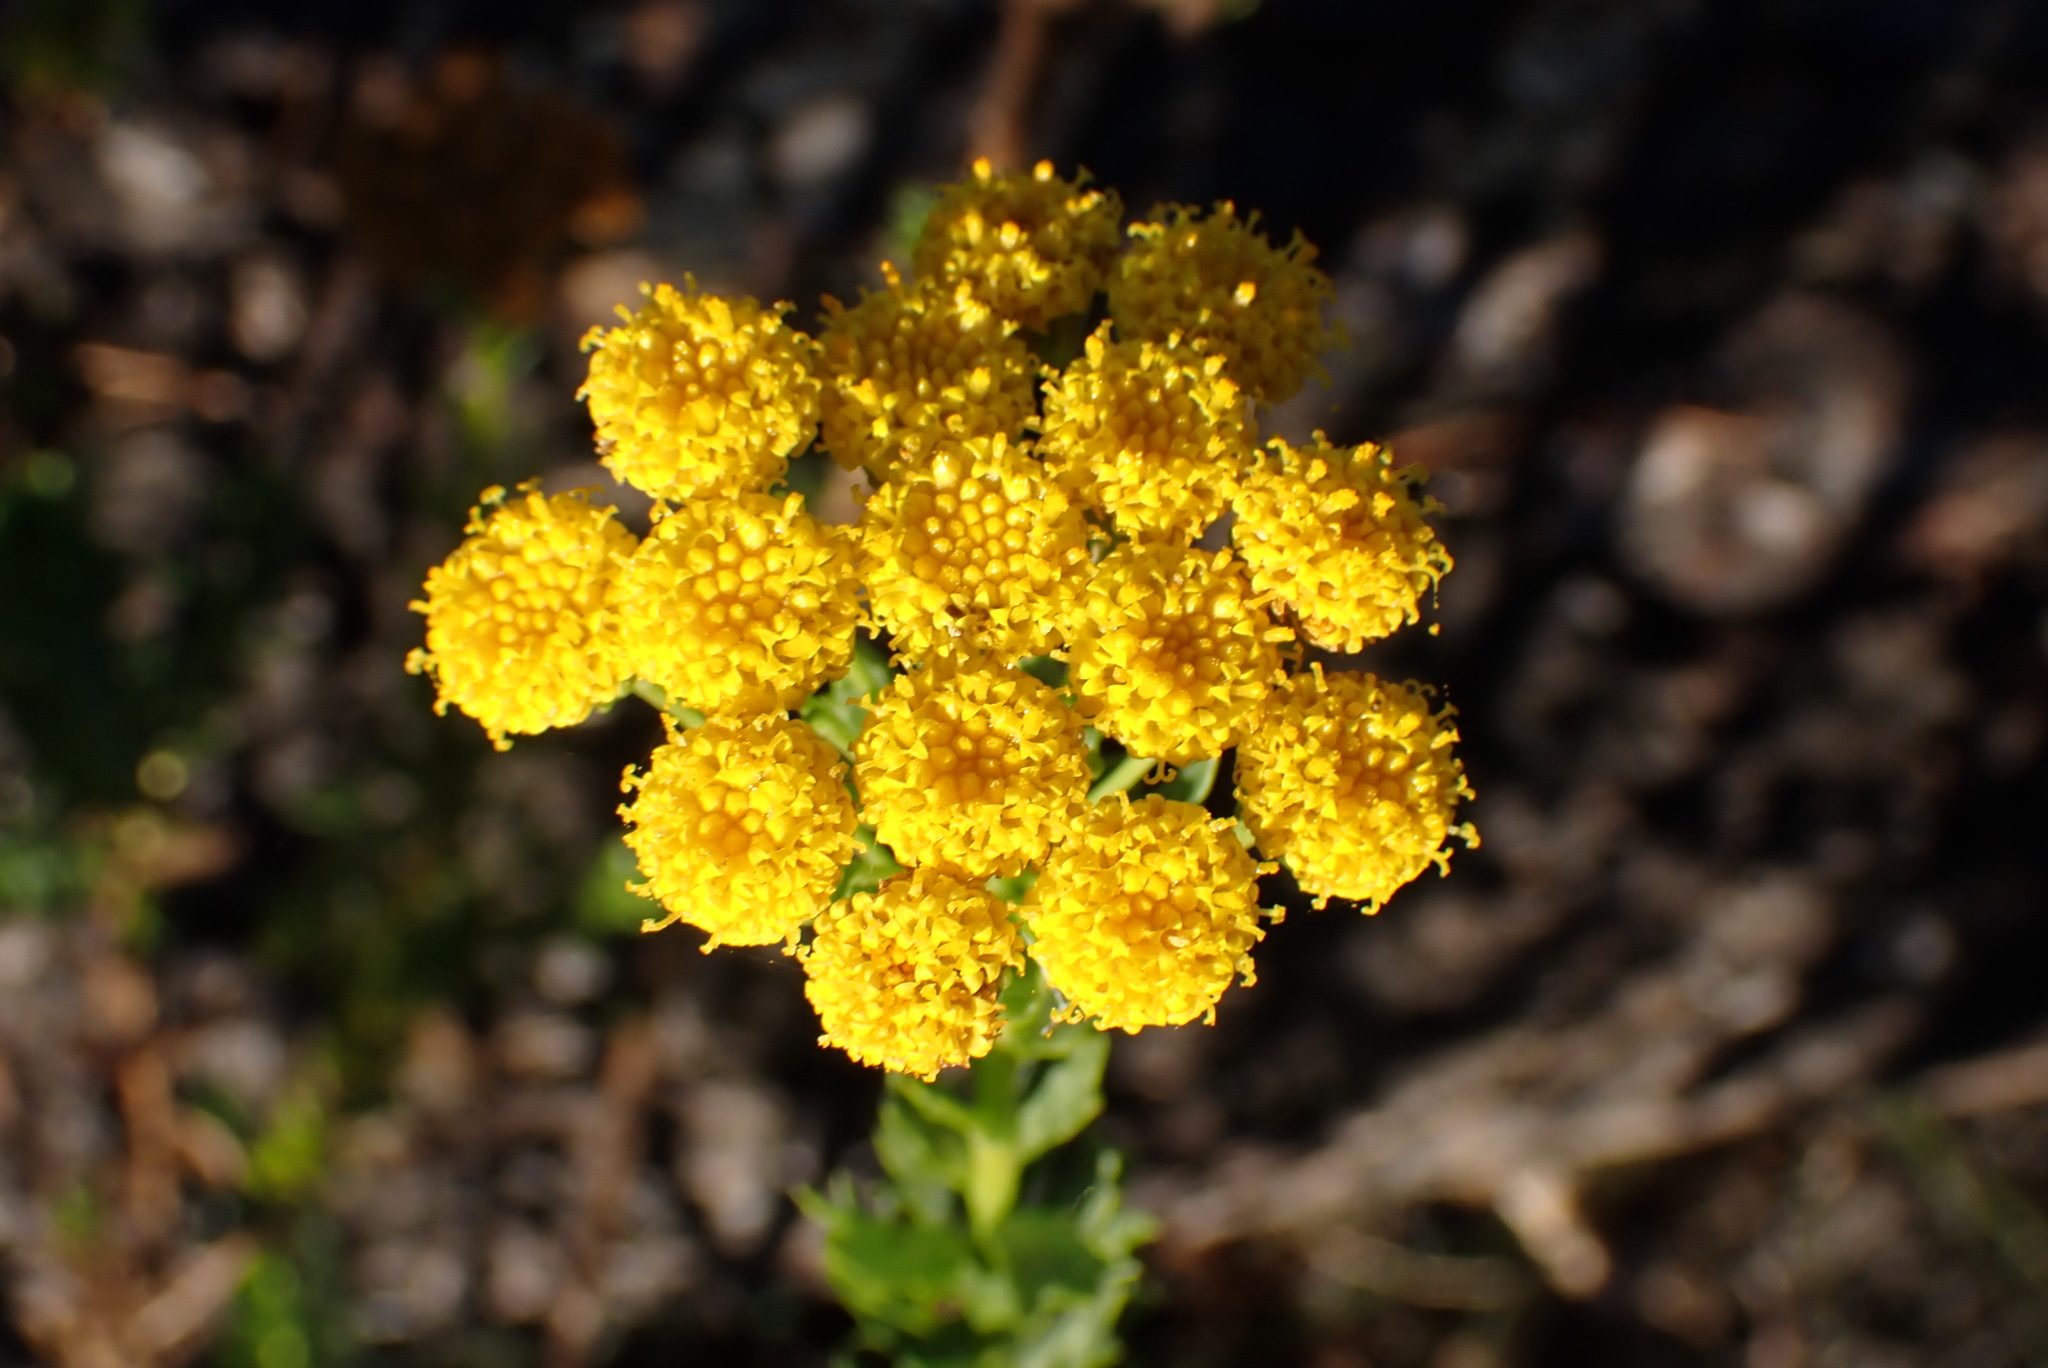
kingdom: Plantae
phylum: Tracheophyta
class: Magnoliopsida
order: Asterales
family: Asteraceae
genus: Athanasia
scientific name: Athanasia trifurcata
